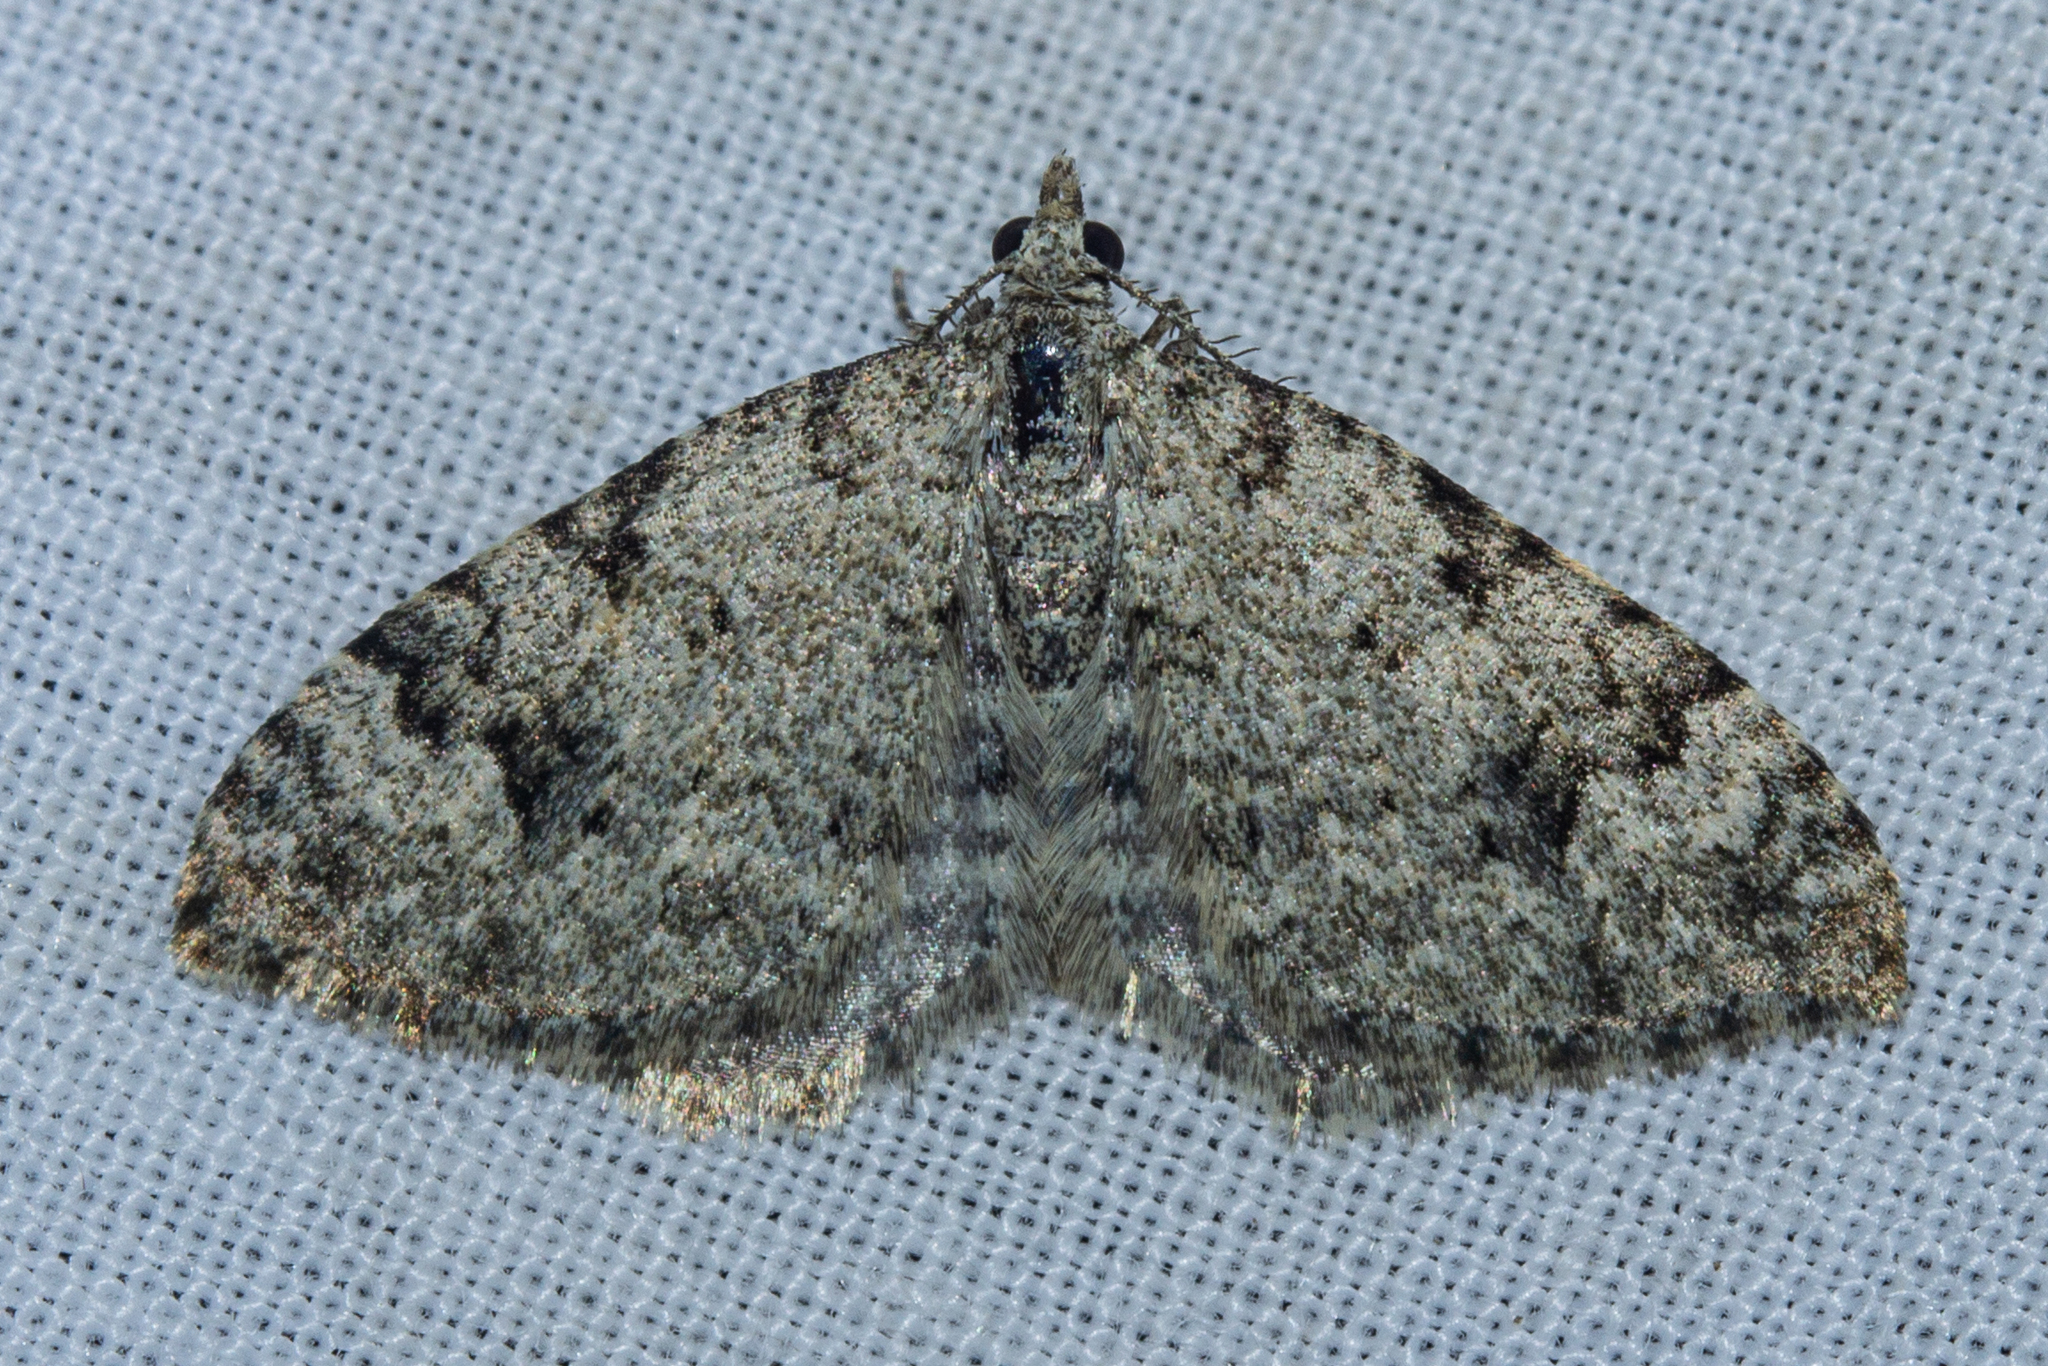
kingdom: Animalia
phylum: Arthropoda
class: Insecta
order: Lepidoptera
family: Geometridae
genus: Helastia
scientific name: Helastia cinerearia
